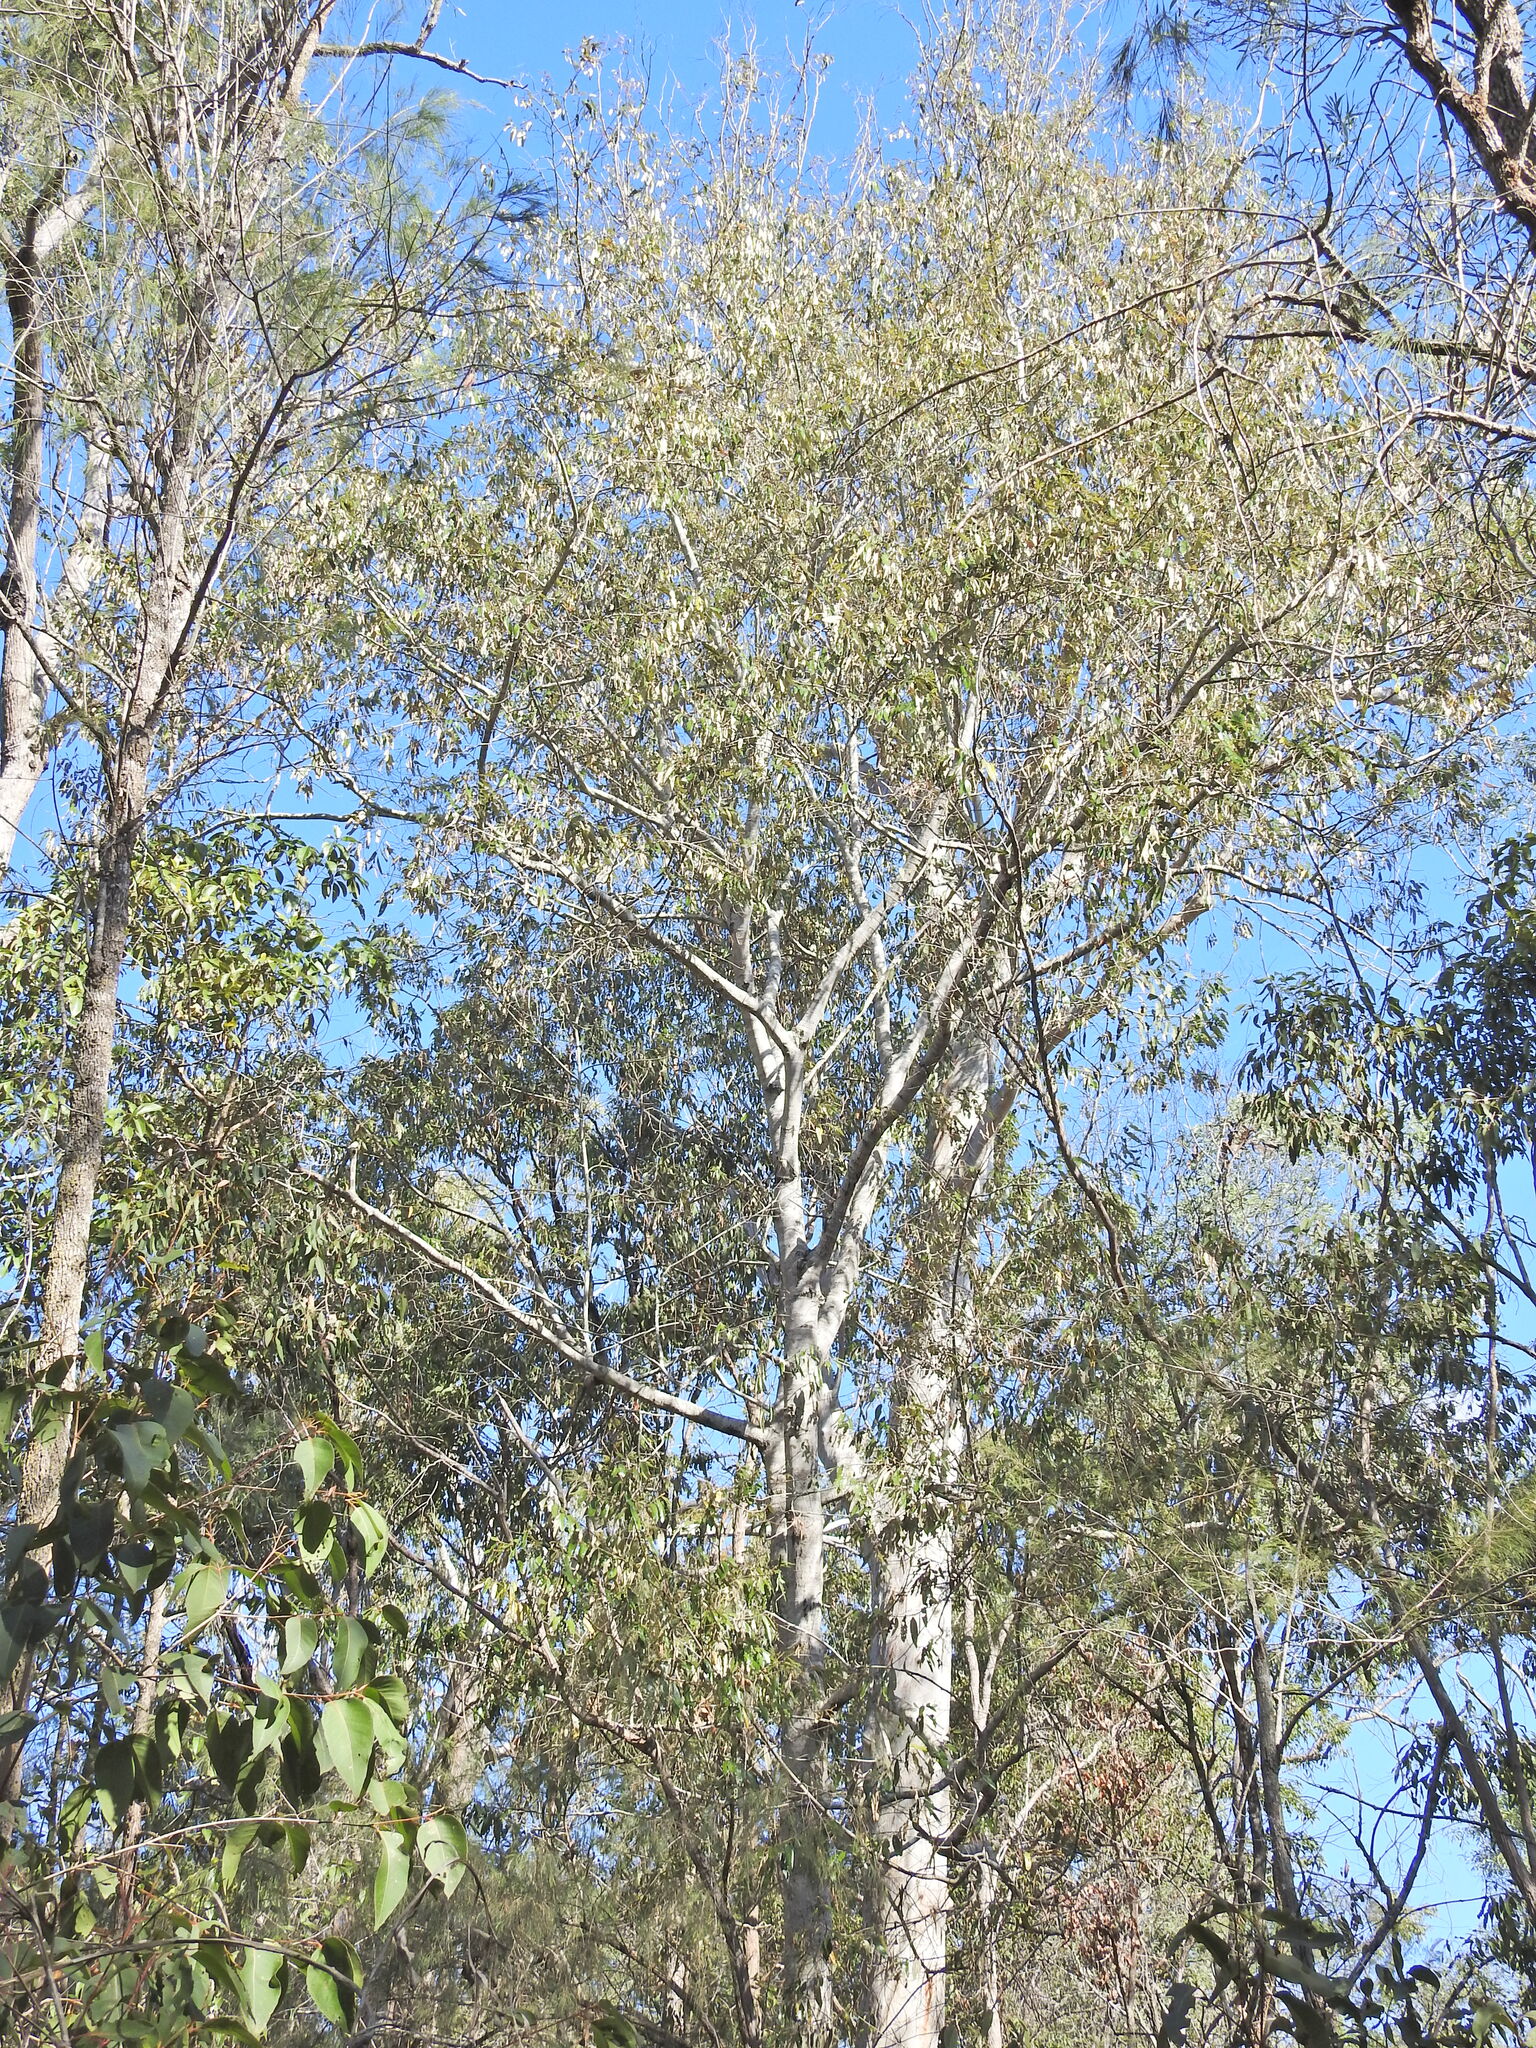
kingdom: Plantae
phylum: Tracheophyta
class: Magnoliopsida
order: Rosales
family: Rhamnaceae
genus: Alphitonia
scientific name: Alphitonia excelsa
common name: Red ash
